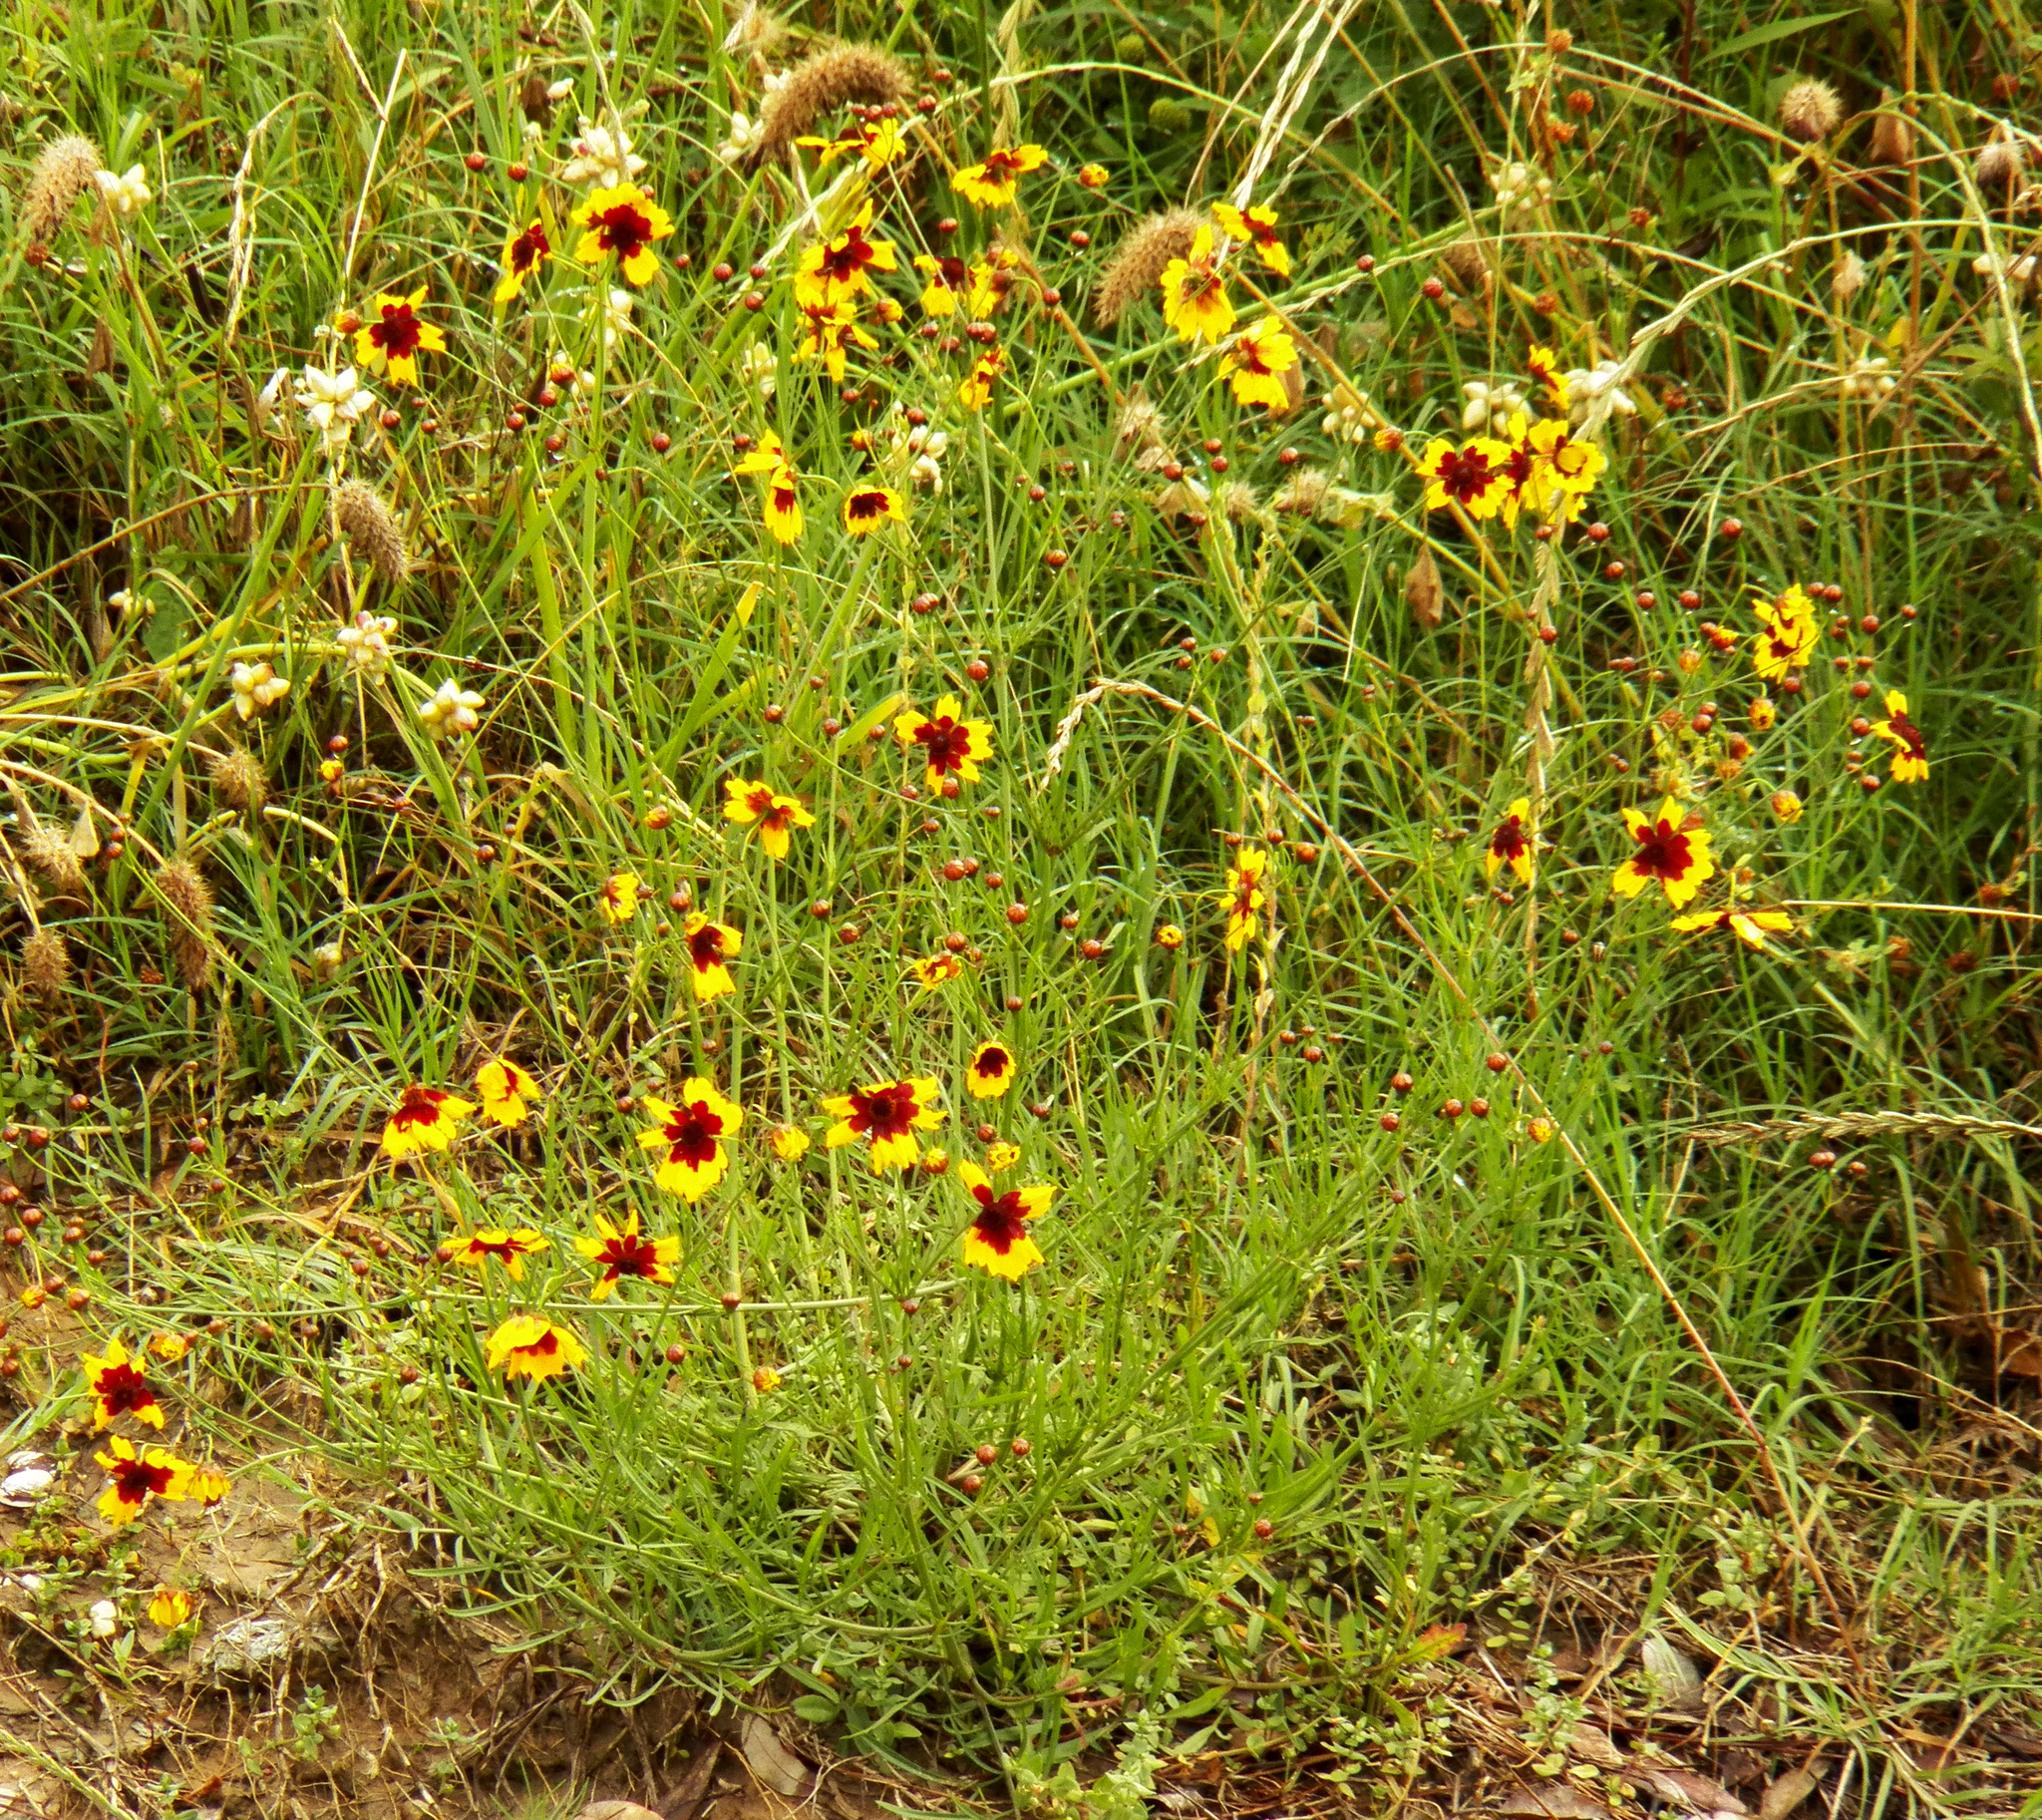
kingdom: Plantae
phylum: Tracheophyta
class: Magnoliopsida
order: Asterales
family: Asteraceae
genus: Coreopsis
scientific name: Coreopsis tinctoria
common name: Garden tickseed
